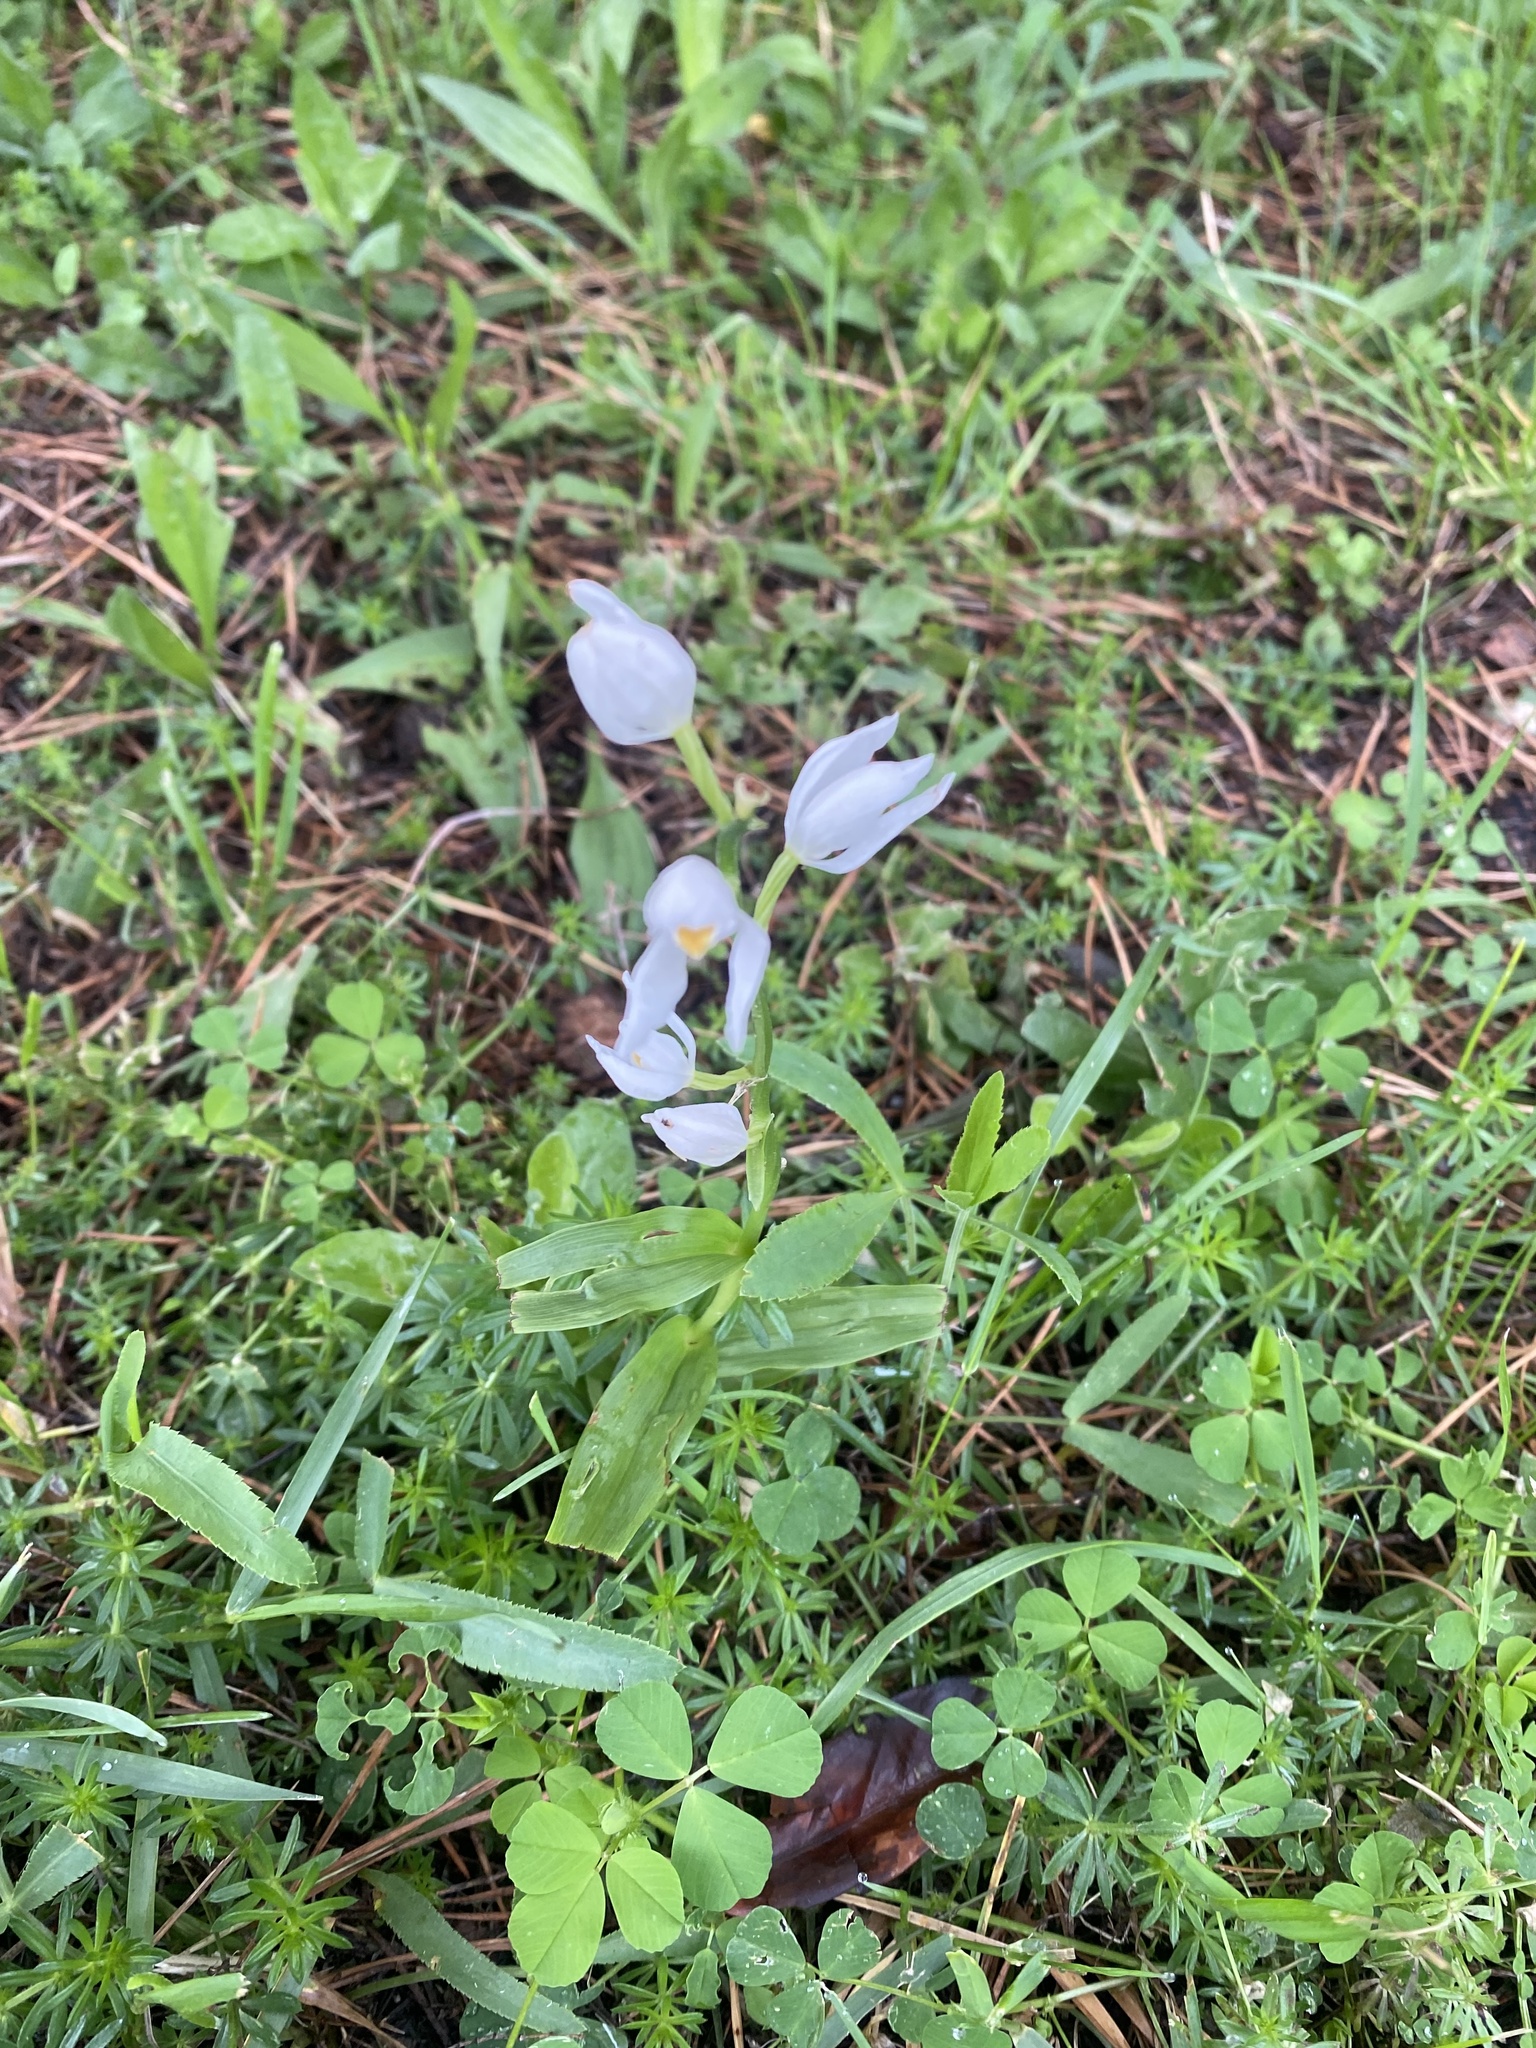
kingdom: Plantae
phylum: Tracheophyta
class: Liliopsida
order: Asparagales
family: Orchidaceae
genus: Cephalanthera
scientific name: Cephalanthera longifolia
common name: Narrow-leaved helleborine
